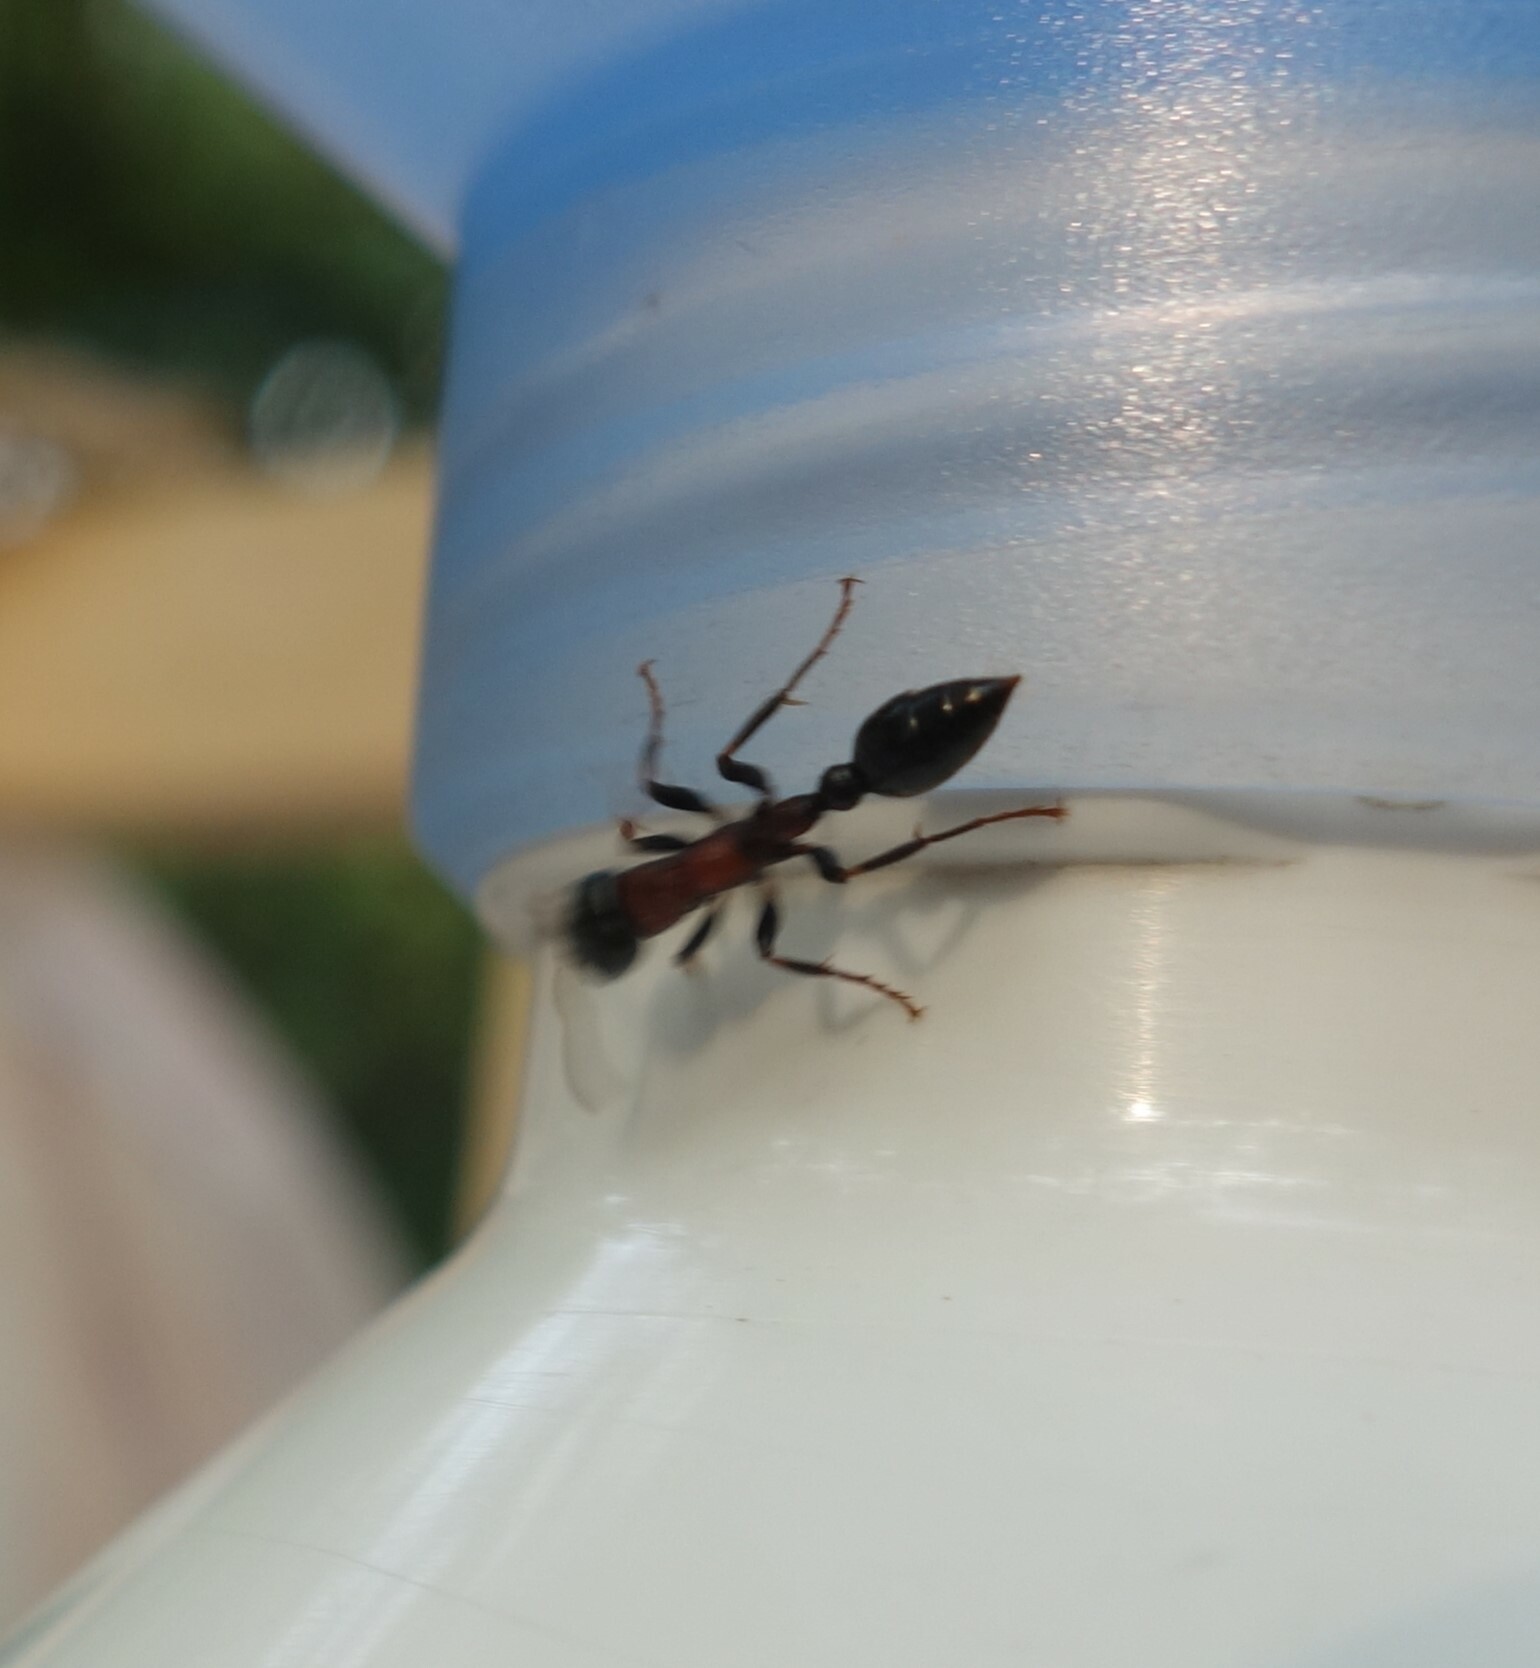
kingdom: Animalia
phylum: Arthropoda
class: Insecta
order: Hymenoptera
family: Formicidae
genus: Tetraponera
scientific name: Tetraponera rufonigra
